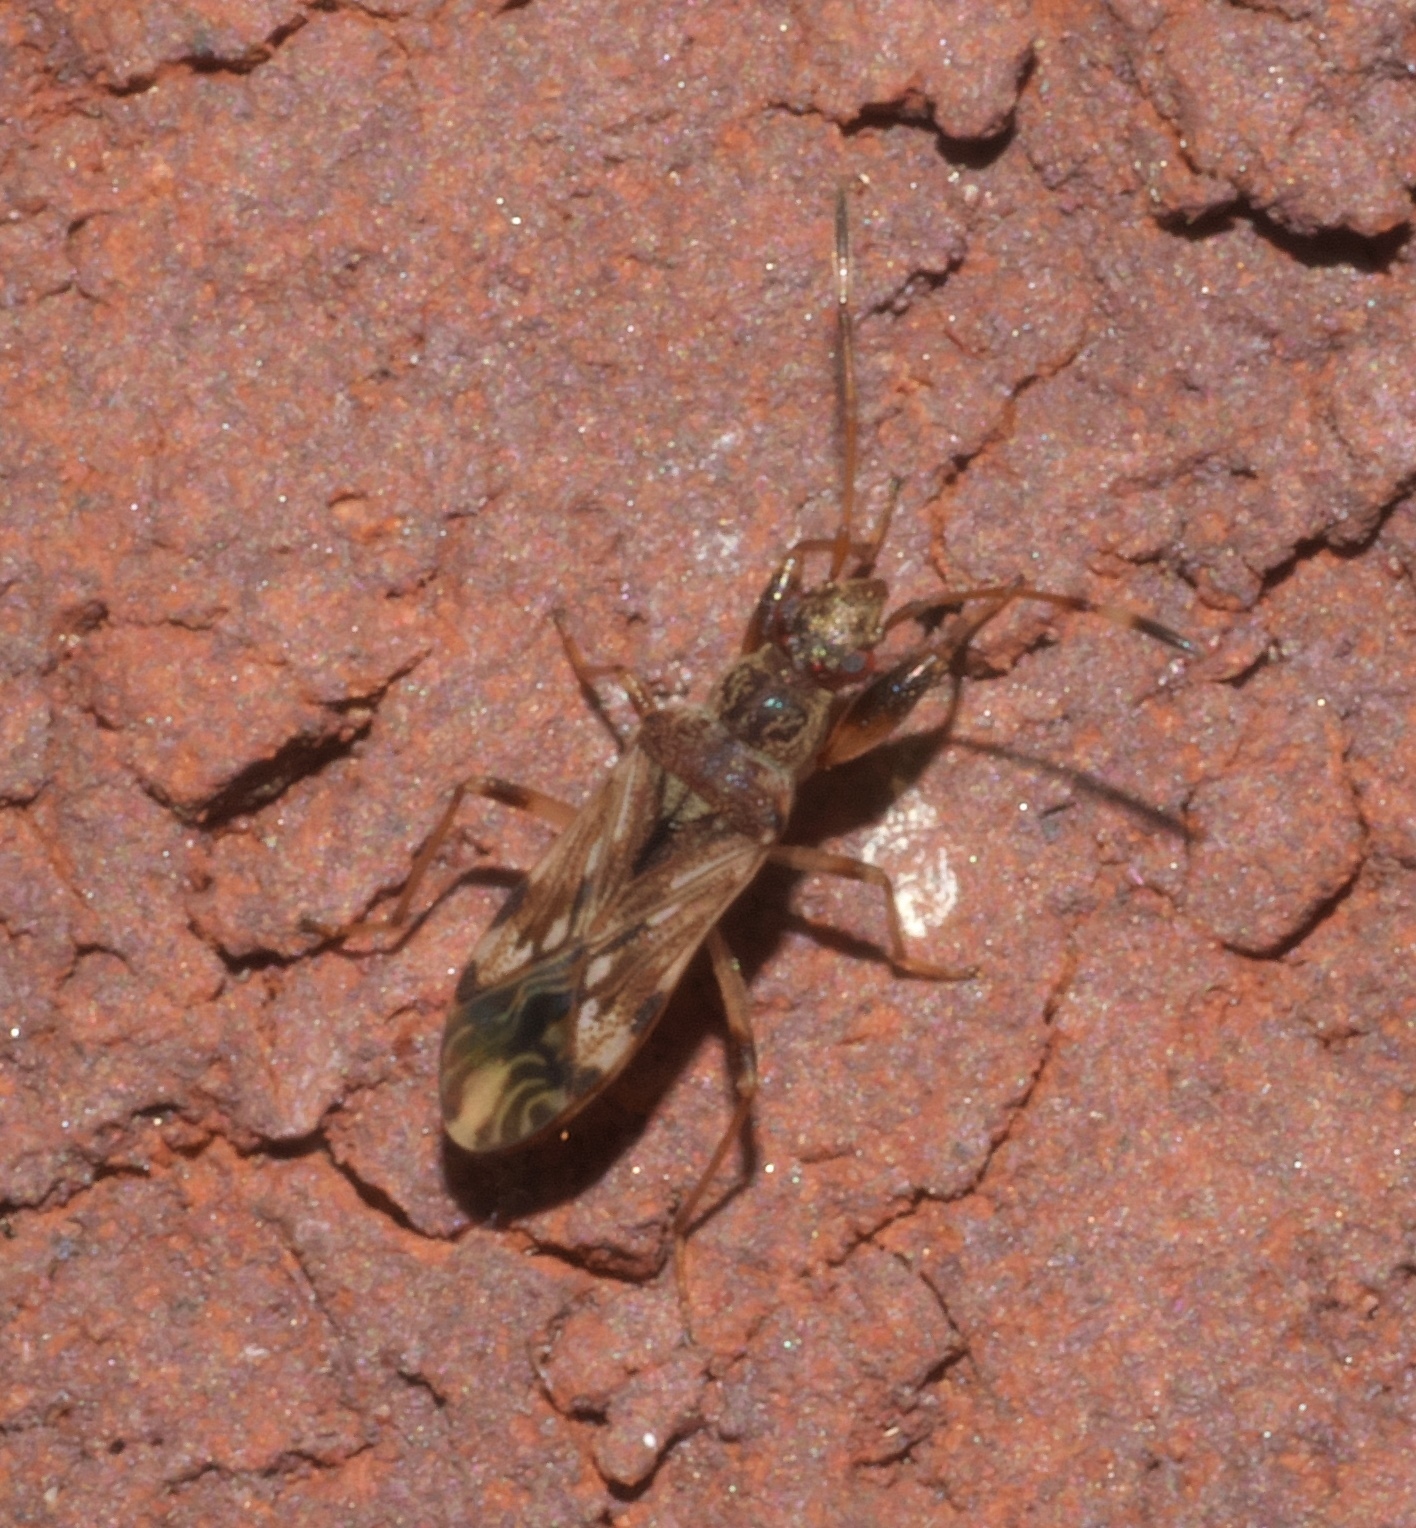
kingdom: Animalia
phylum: Arthropoda
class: Insecta
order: Hemiptera
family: Rhyparochromidae
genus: Neopamera
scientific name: Neopamera albocincta
